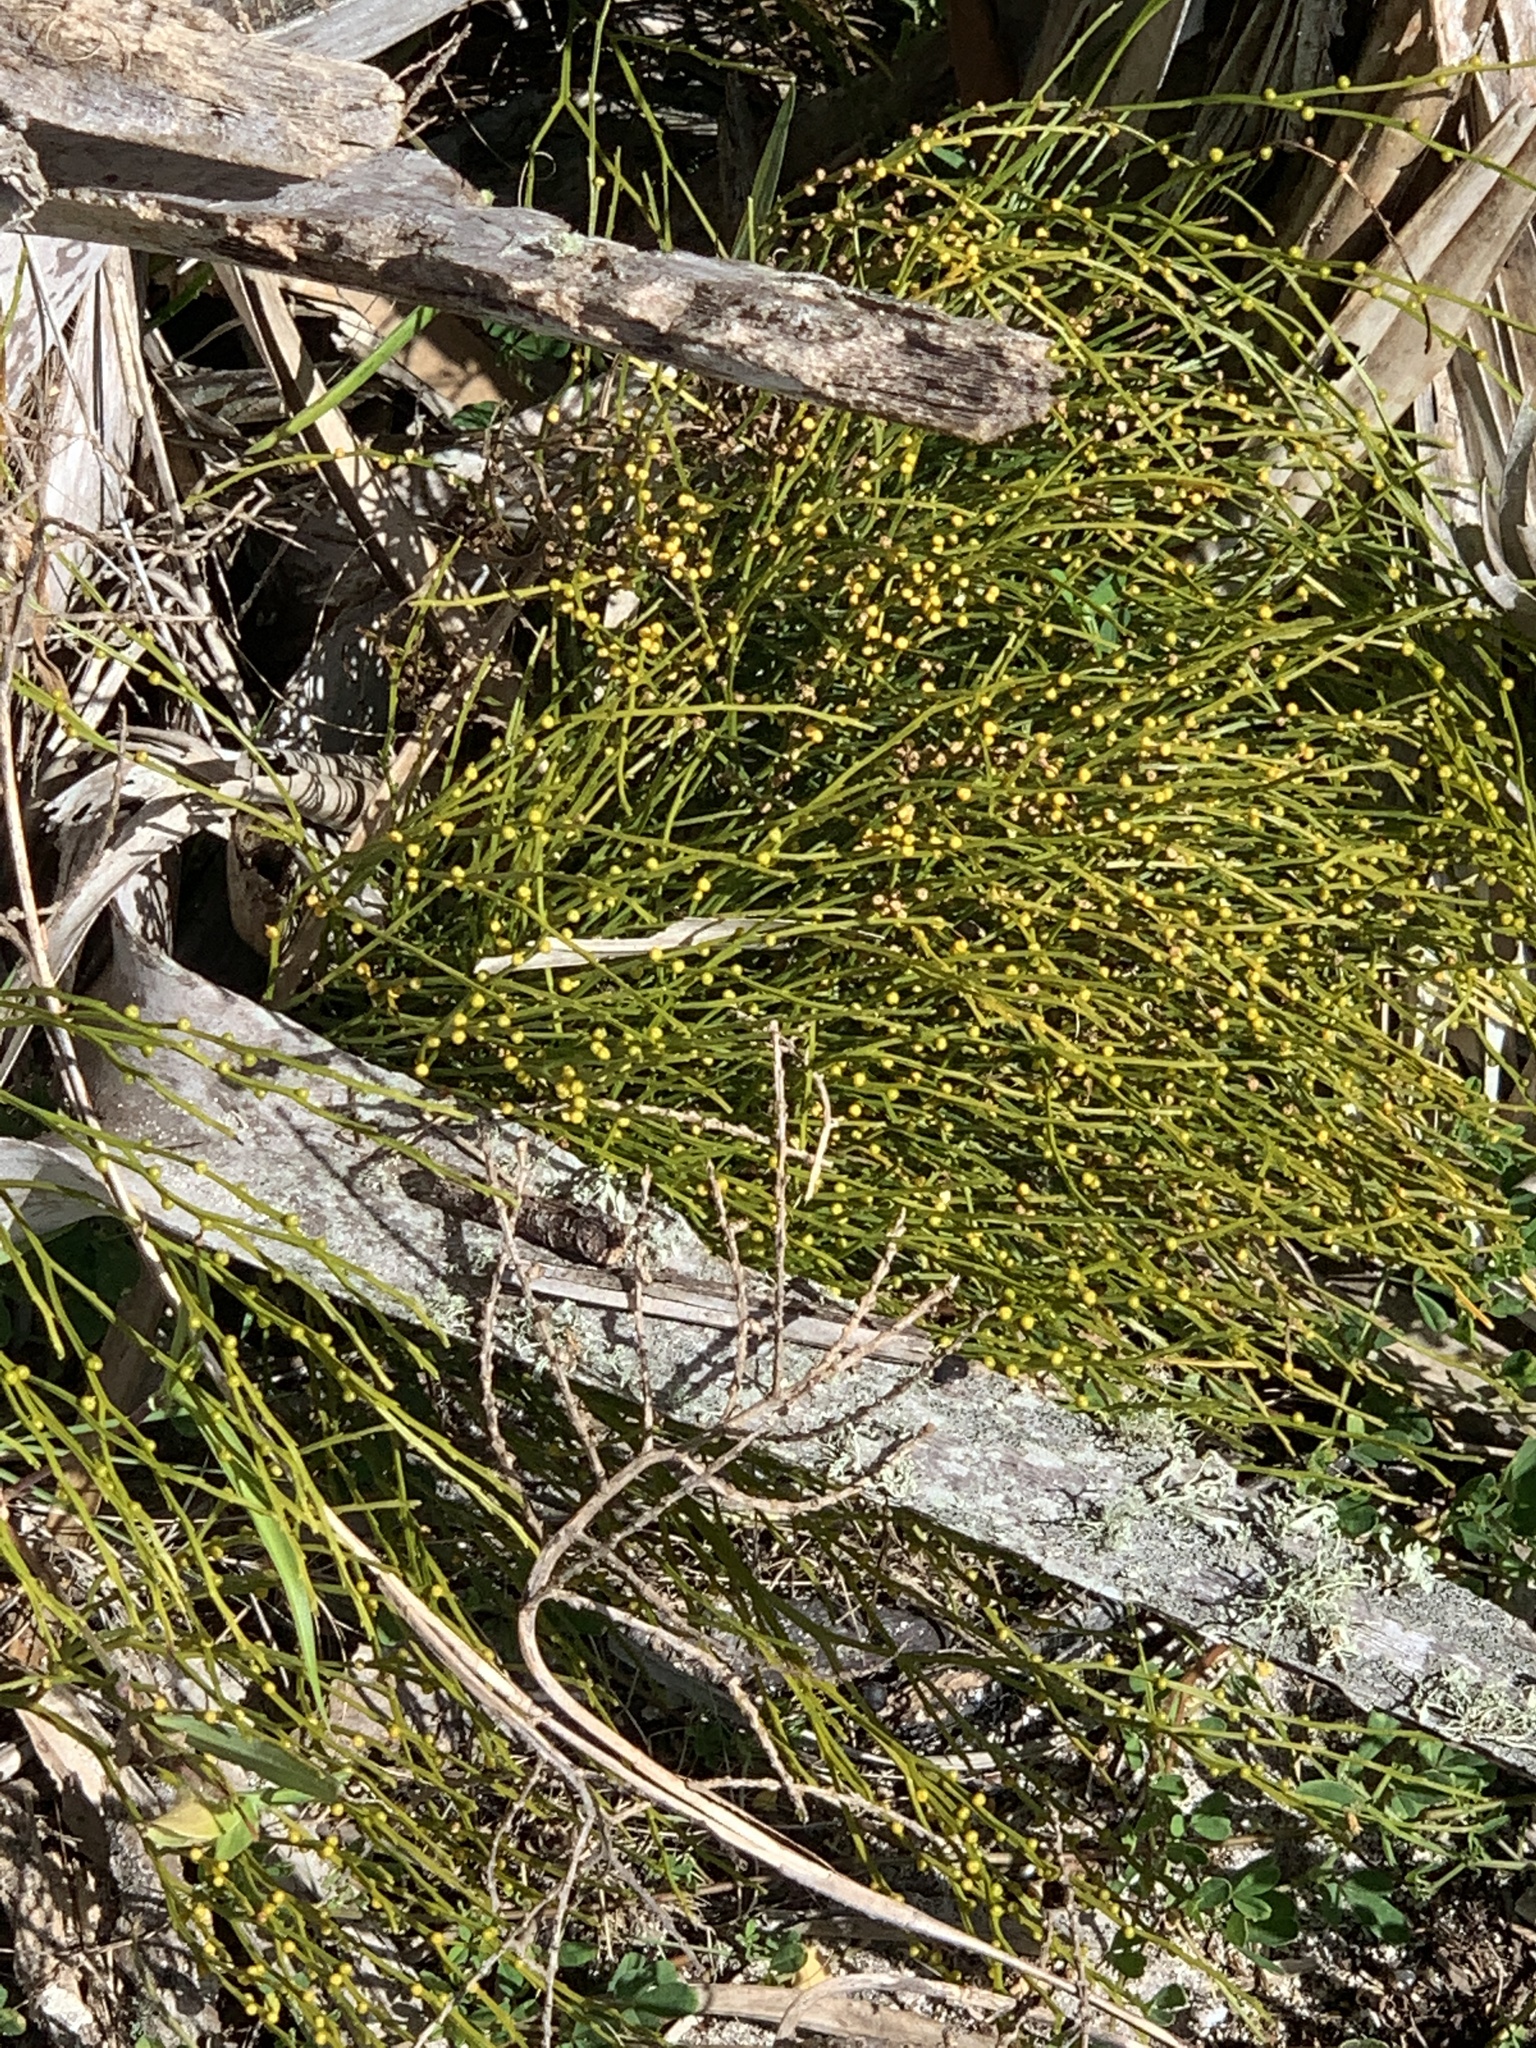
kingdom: Plantae
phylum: Tracheophyta
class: Polypodiopsida
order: Psilotales
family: Psilotaceae
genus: Psilotum
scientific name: Psilotum nudum
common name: Skeleton fork fern
